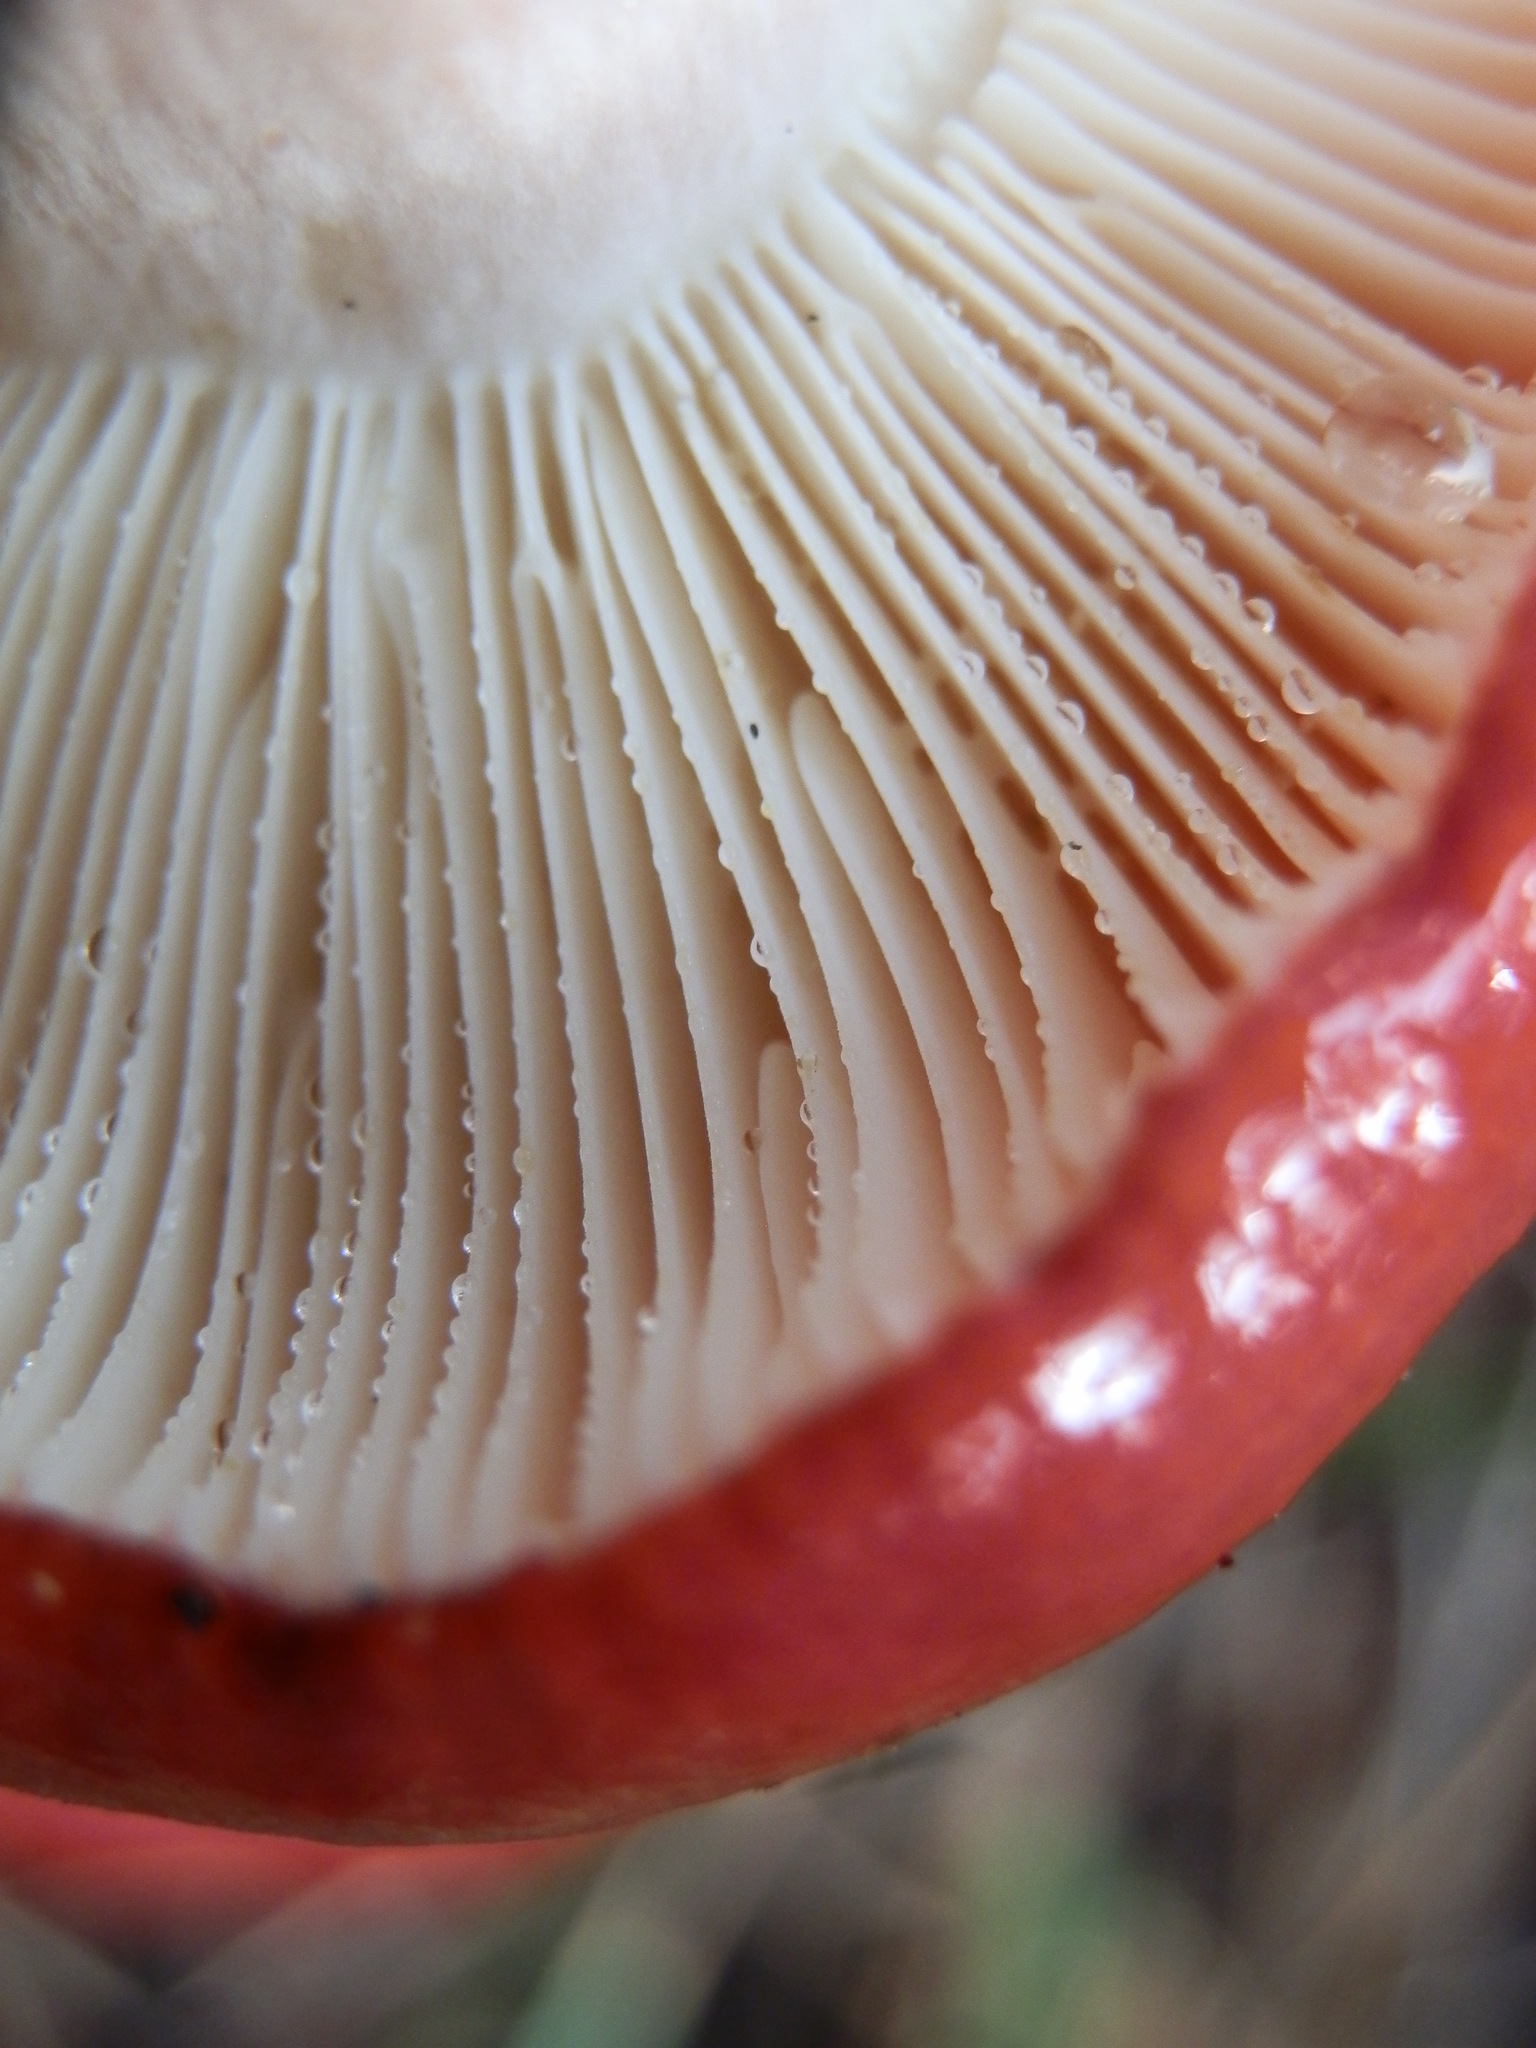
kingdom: Fungi
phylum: Basidiomycota
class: Agaricomycetes
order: Russulales
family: Russulaceae
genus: Russula
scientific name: Russula rhodocephala
